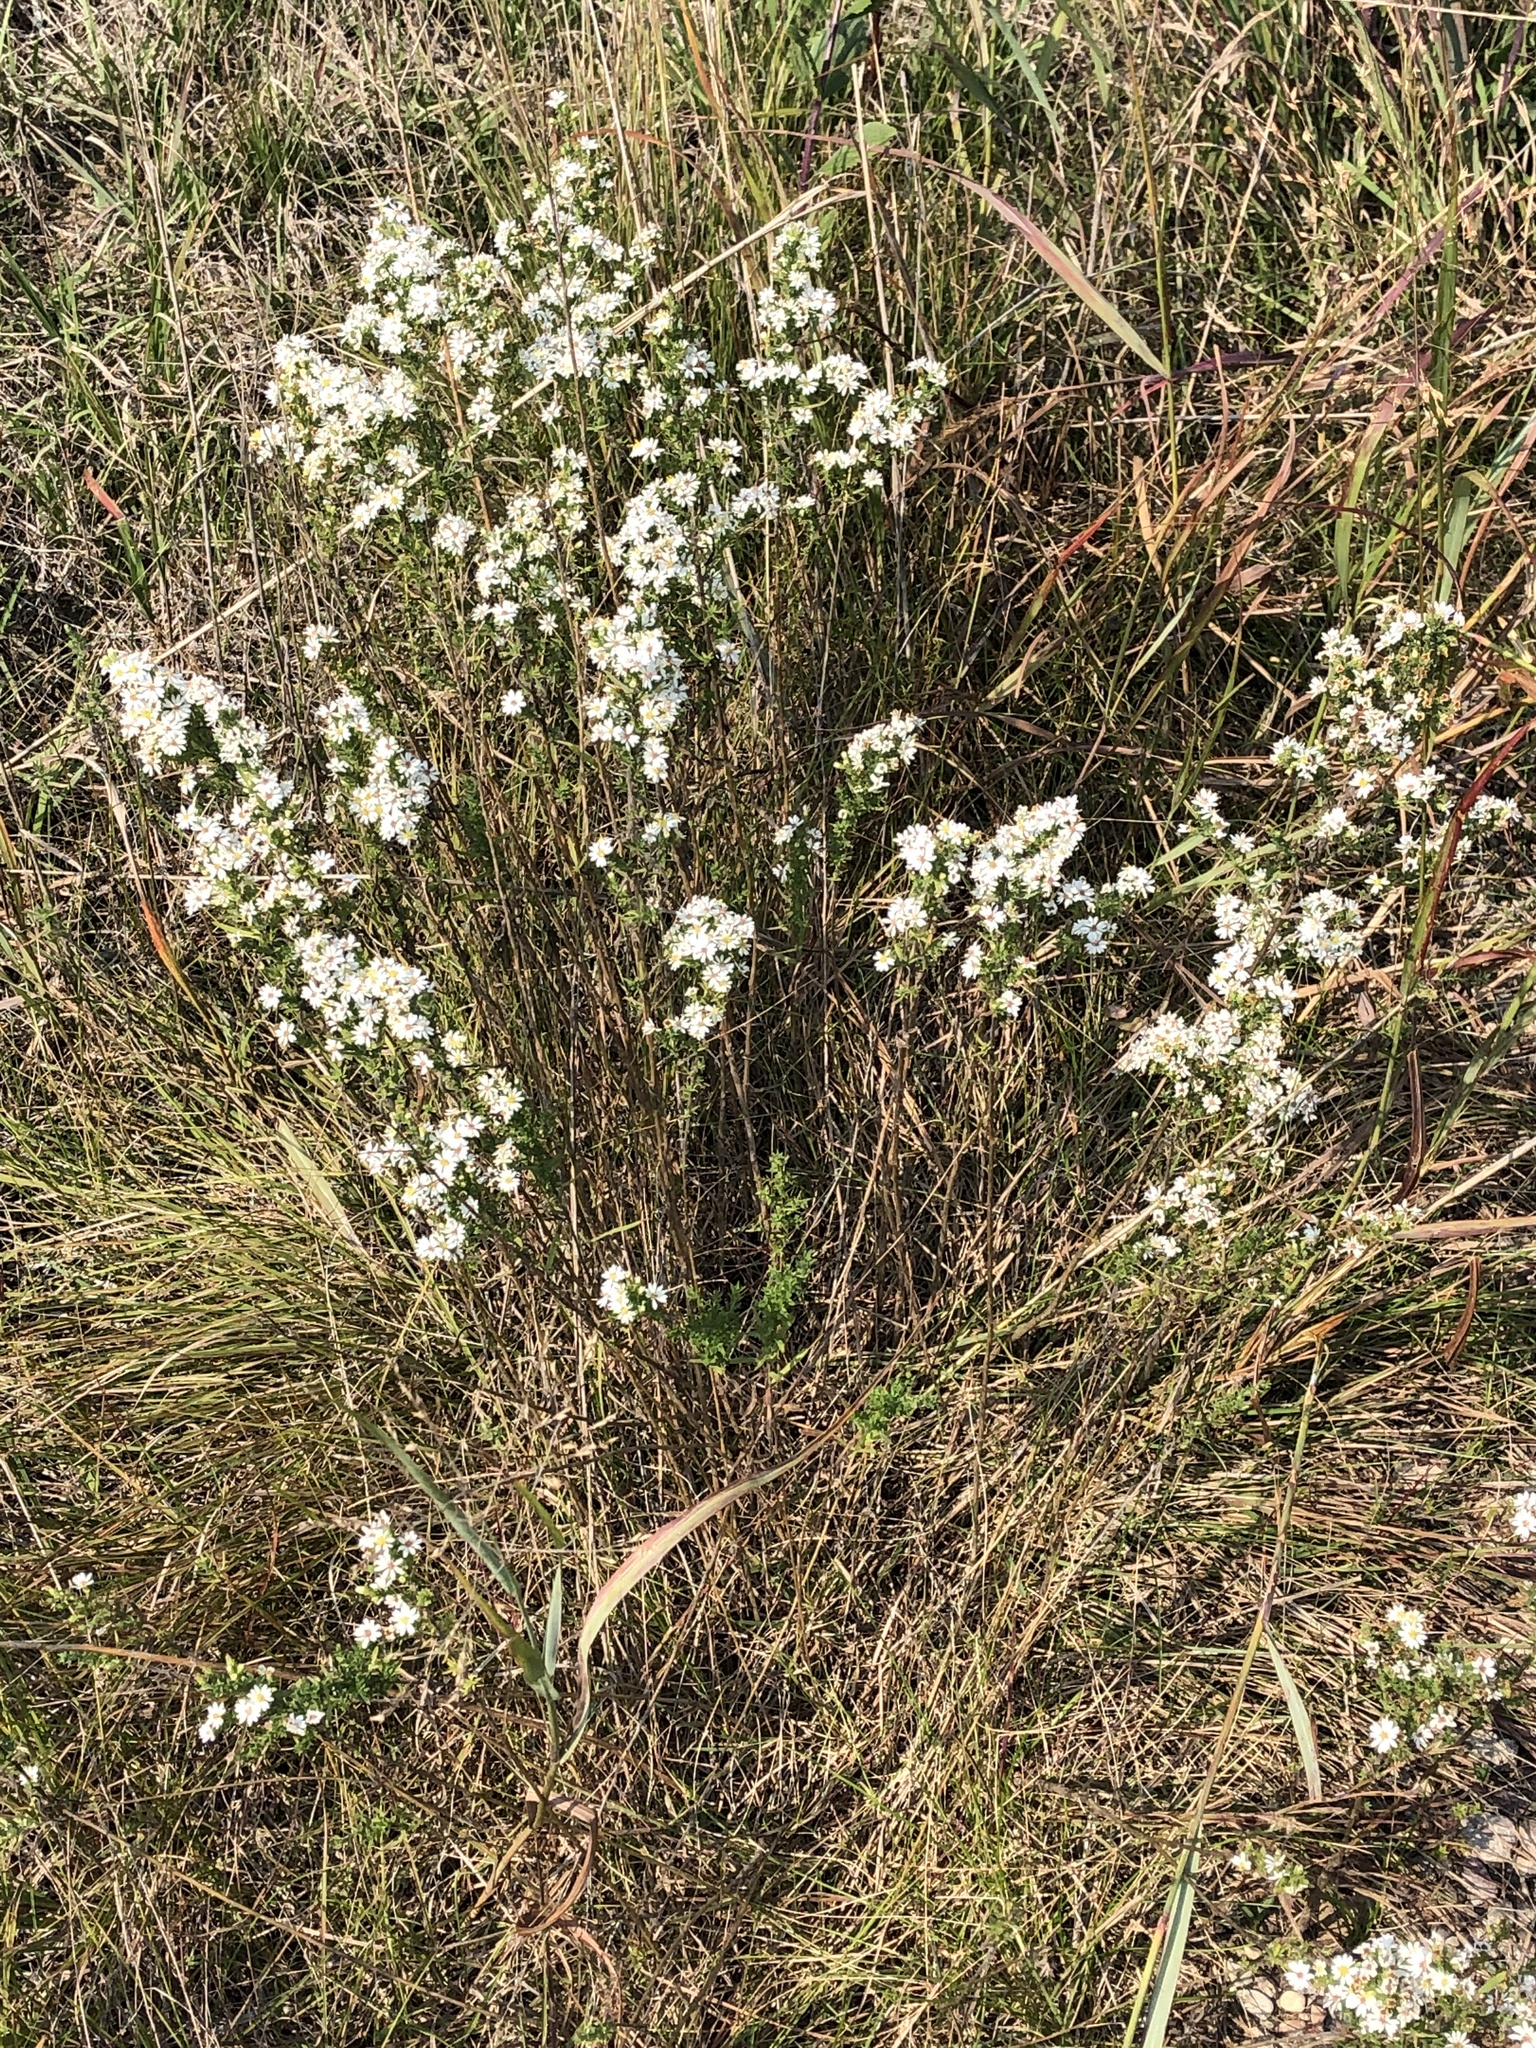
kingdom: Plantae
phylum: Tracheophyta
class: Magnoliopsida
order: Asterales
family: Asteraceae
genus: Symphyotrichum
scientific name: Symphyotrichum ericoides
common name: Heath aster
